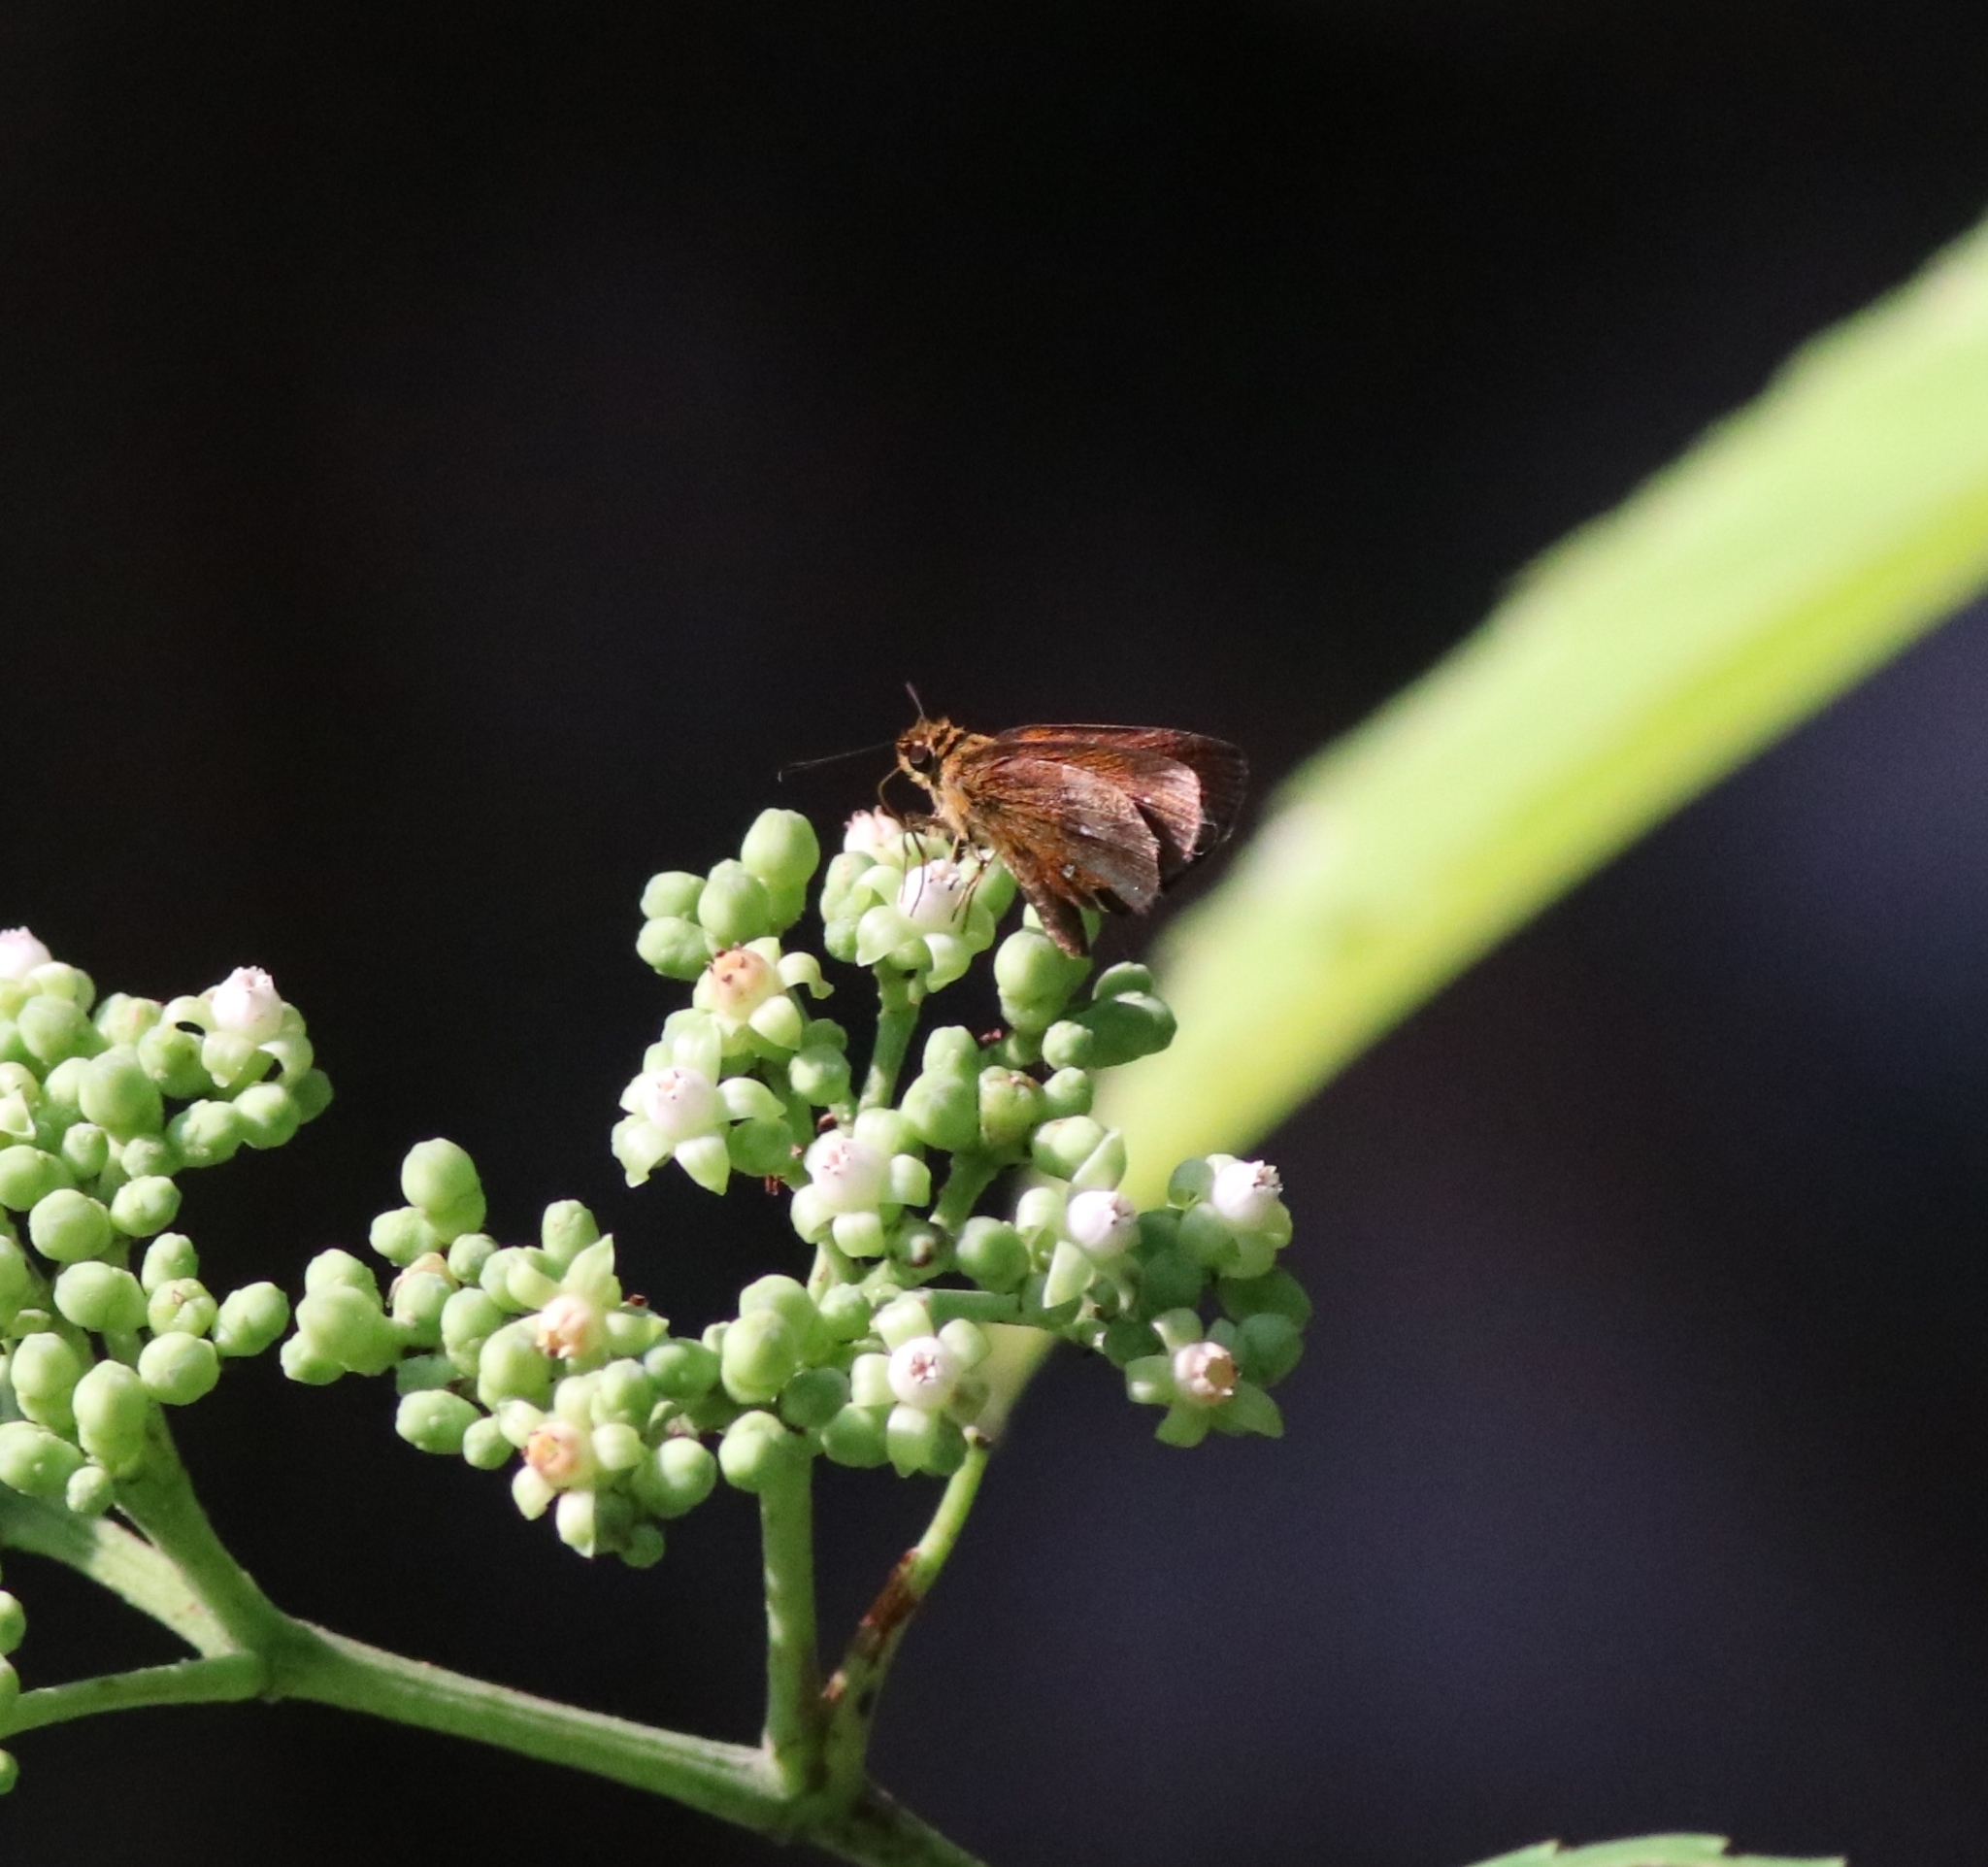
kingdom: Animalia
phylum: Arthropoda
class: Insecta
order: Lepidoptera
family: Hesperiidae
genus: Iambrix
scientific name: Iambrix salsala
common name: Chestnut bob
